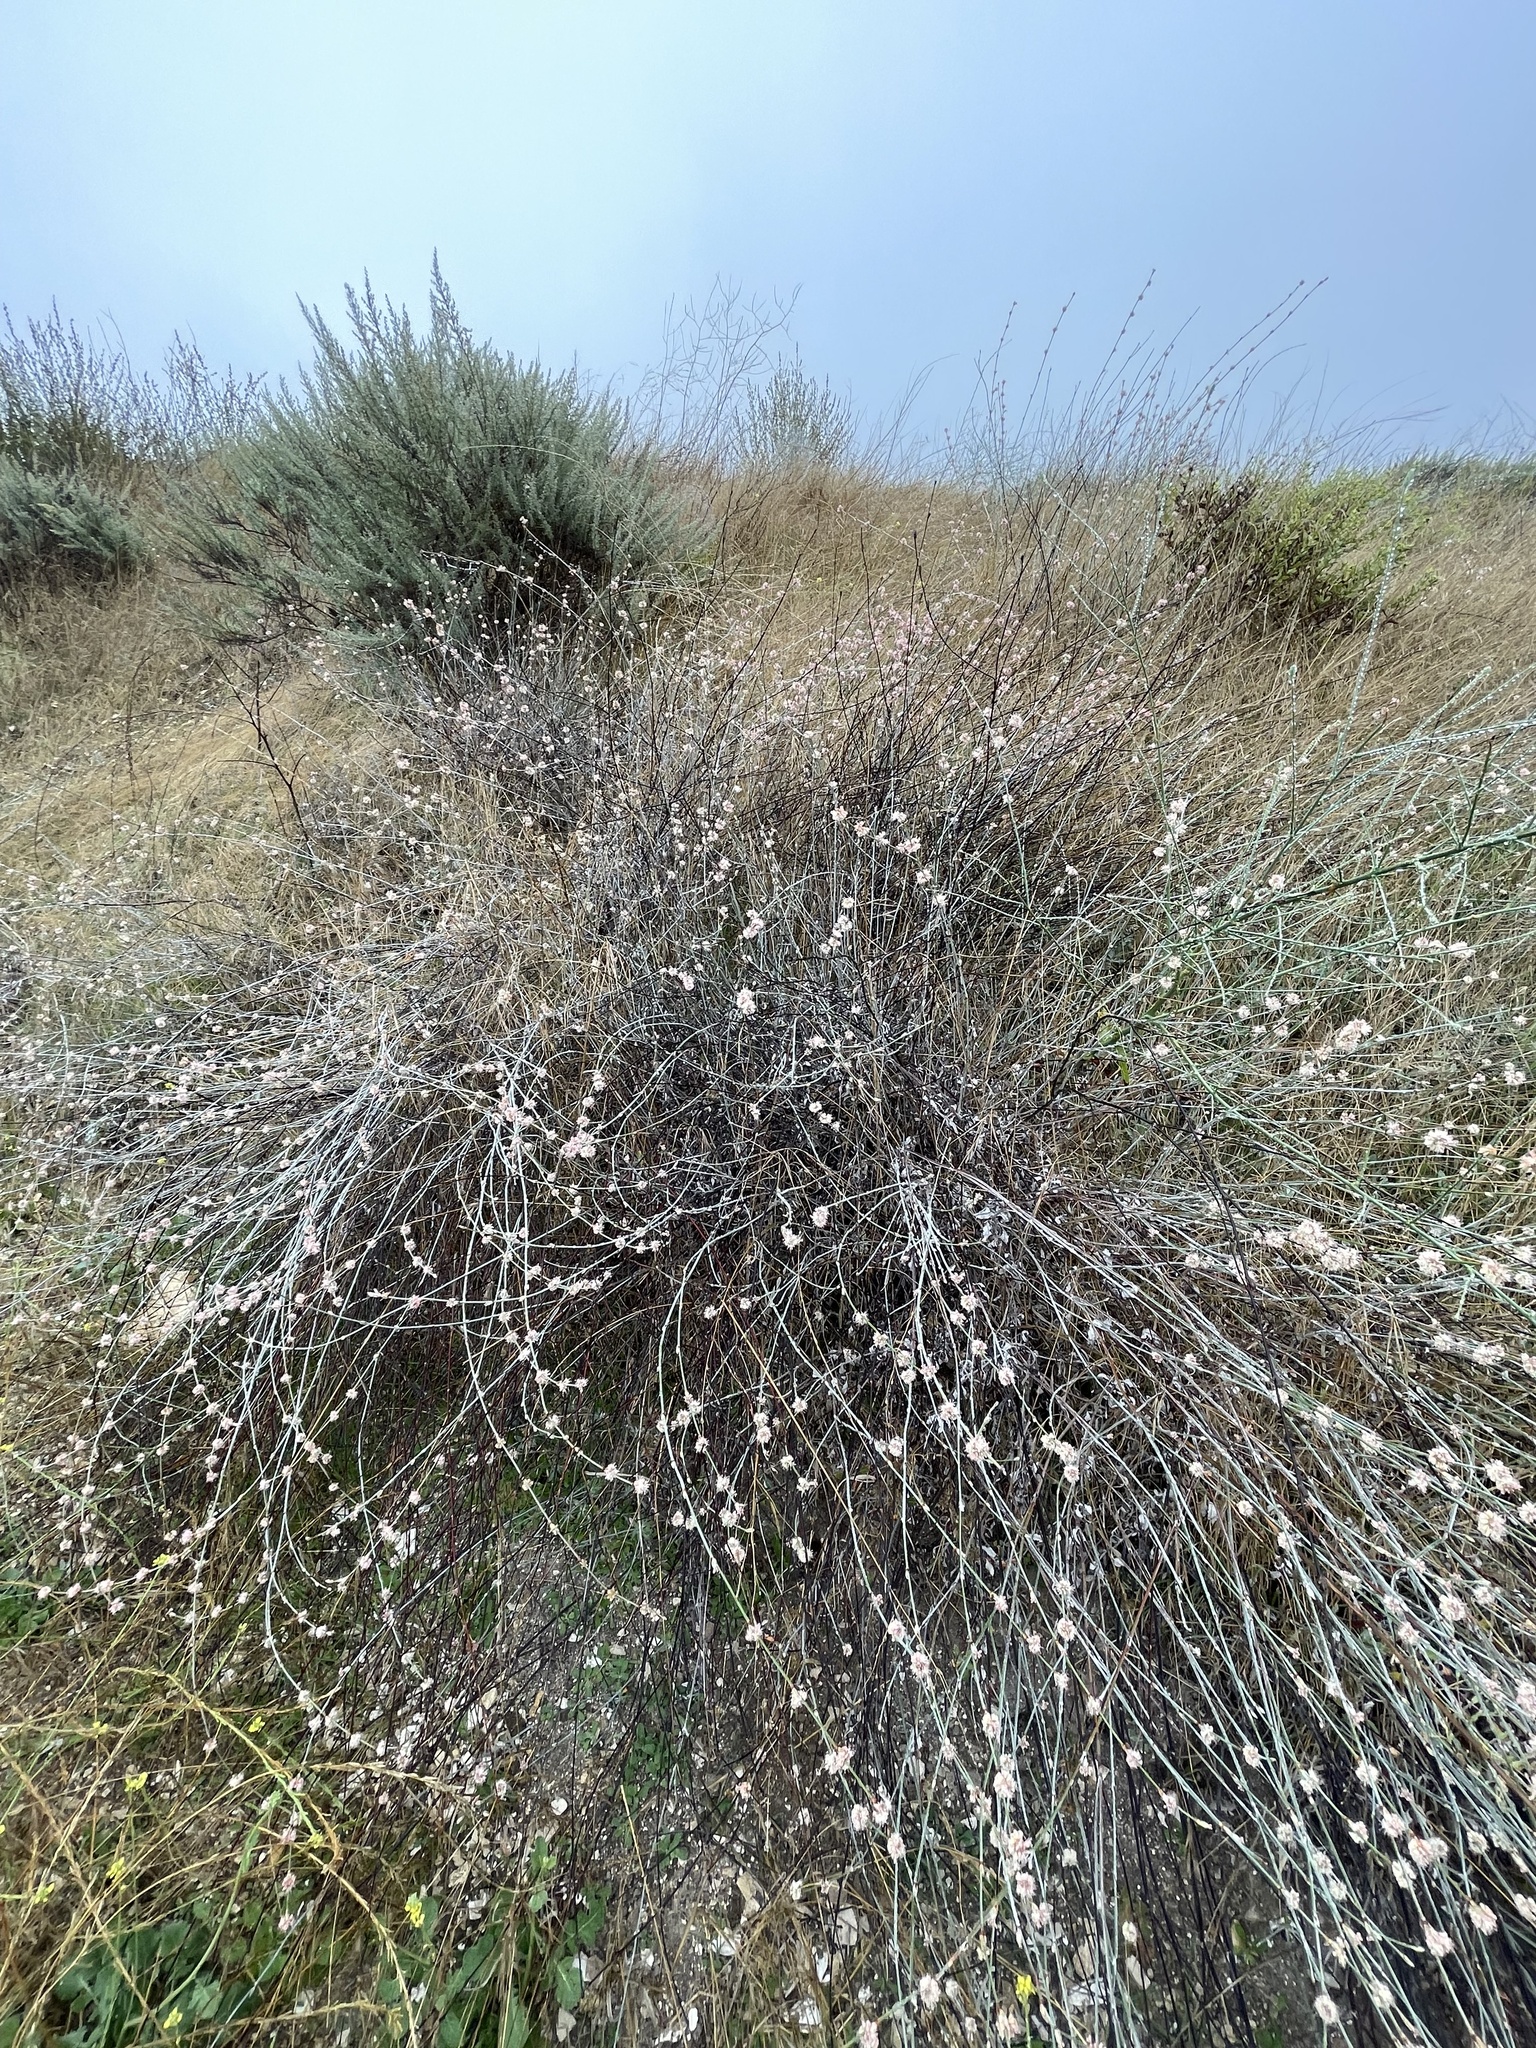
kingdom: Plantae
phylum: Tracheophyta
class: Magnoliopsida
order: Caryophyllales
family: Polygonaceae
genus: Eriogonum
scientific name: Eriogonum elongatum
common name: Long-stem wild buckwheat
